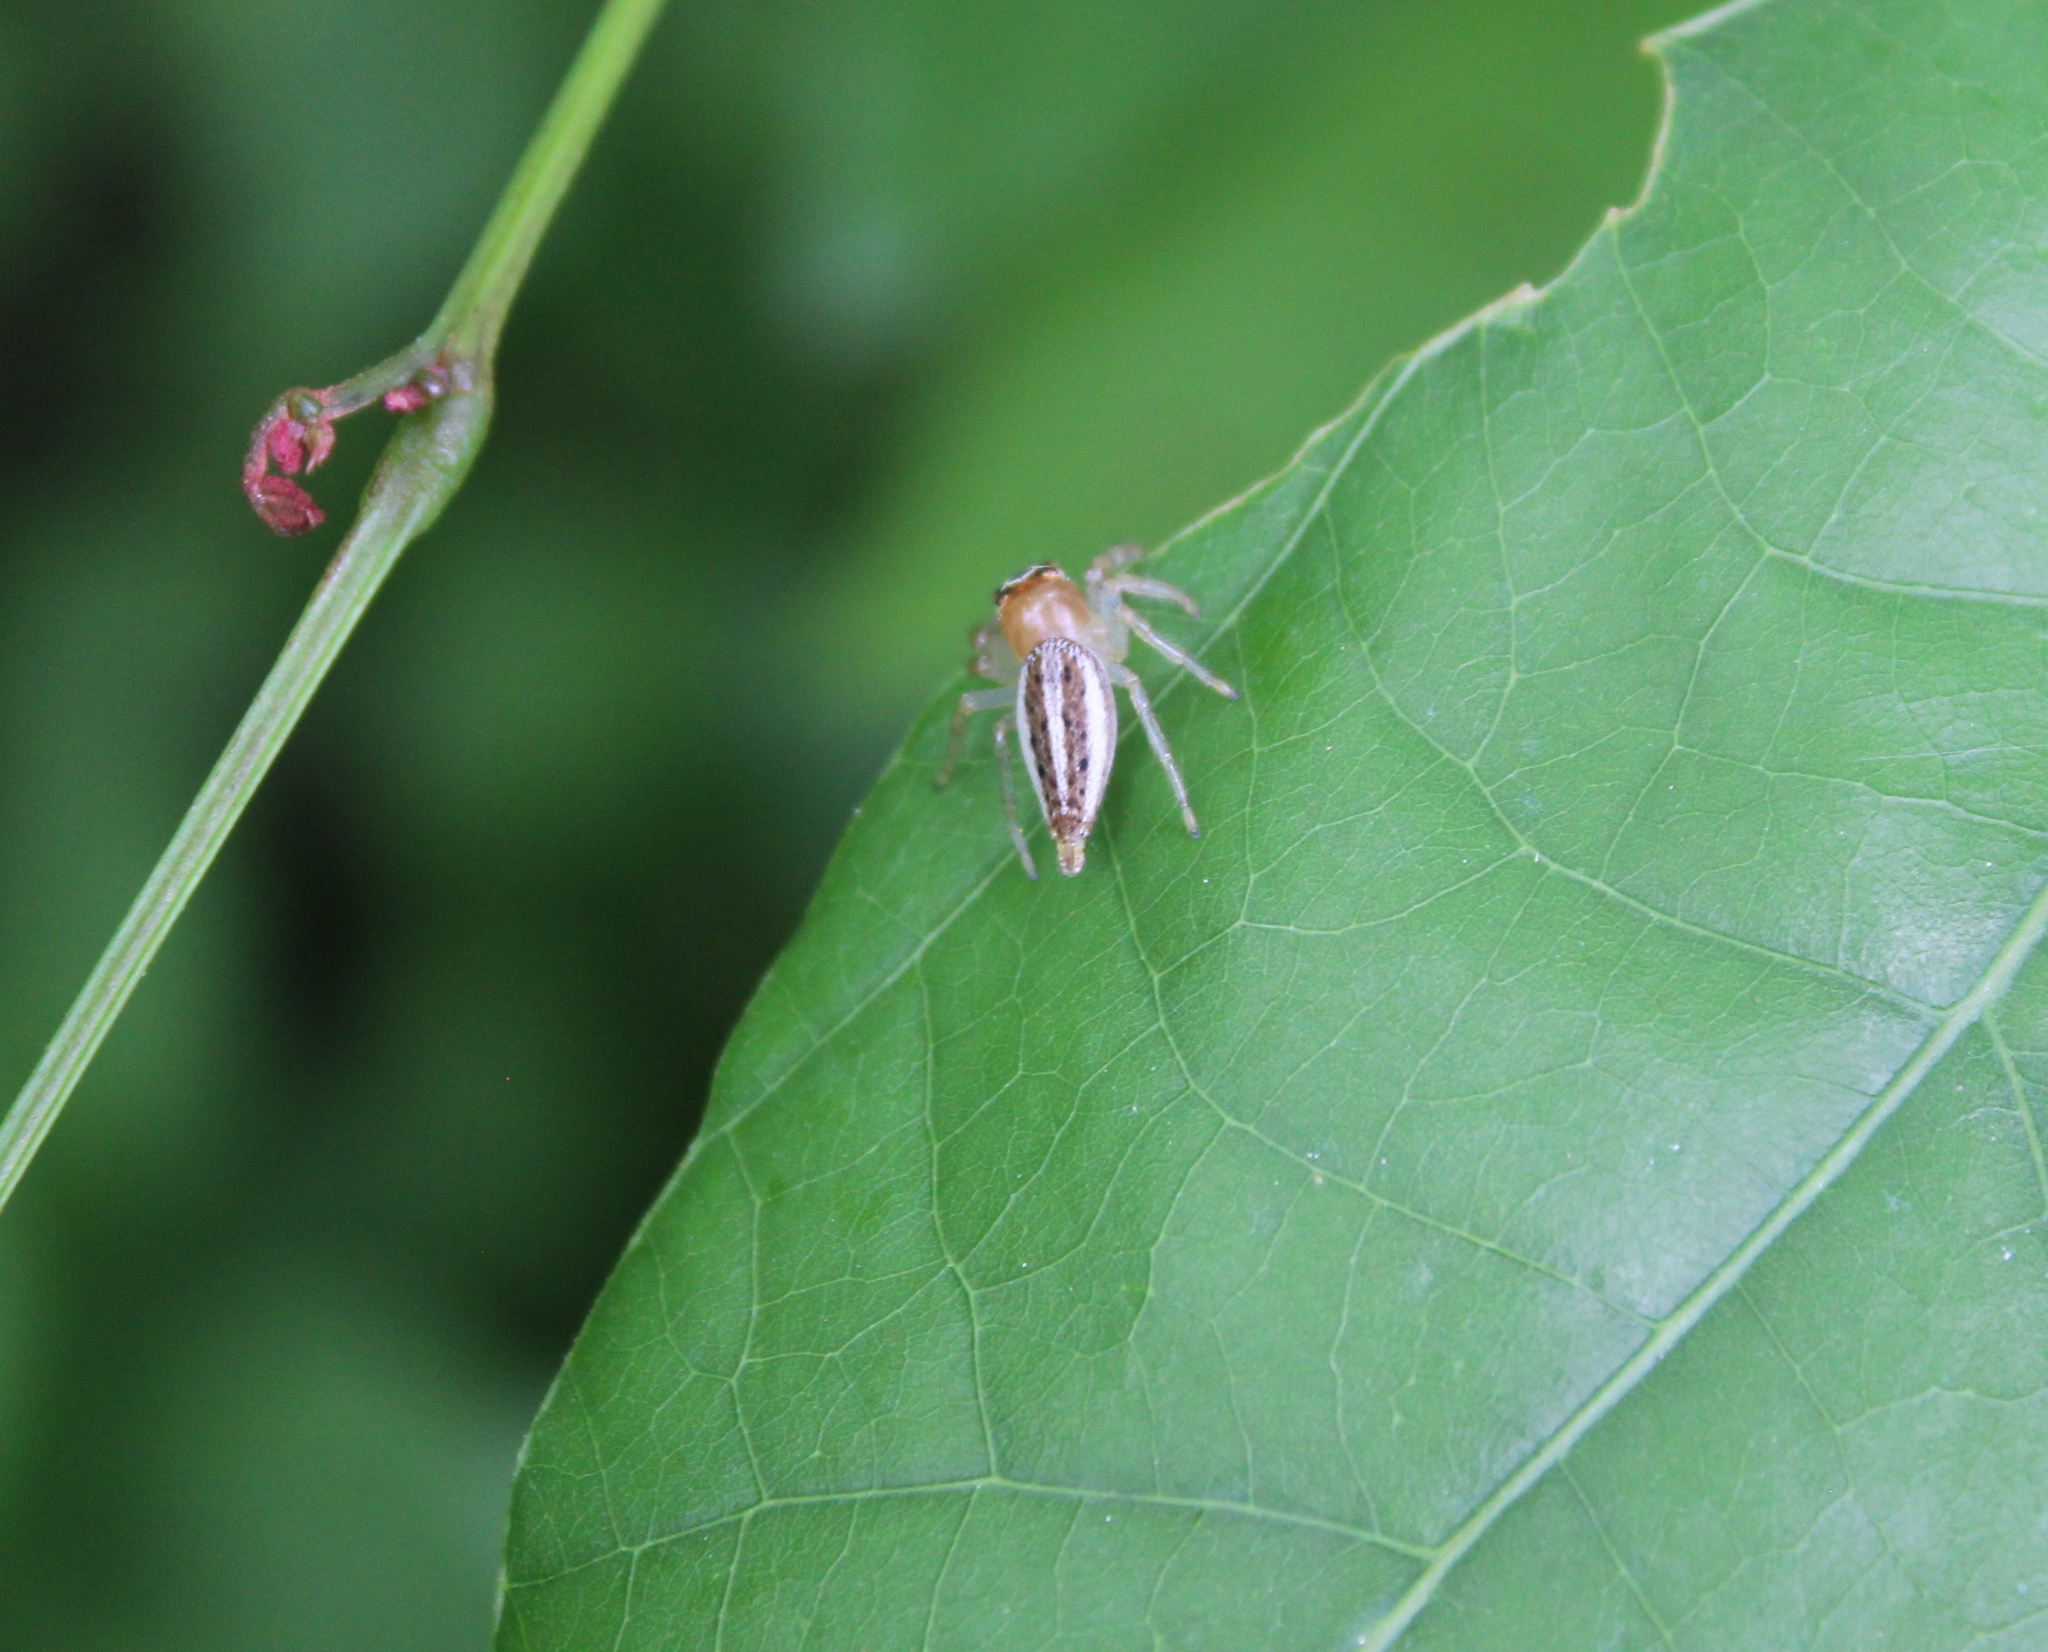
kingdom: Animalia
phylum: Arthropoda
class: Arachnida
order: Araneae
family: Salticidae
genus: Colonus
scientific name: Colonus sylvanus
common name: Jumping spiders
